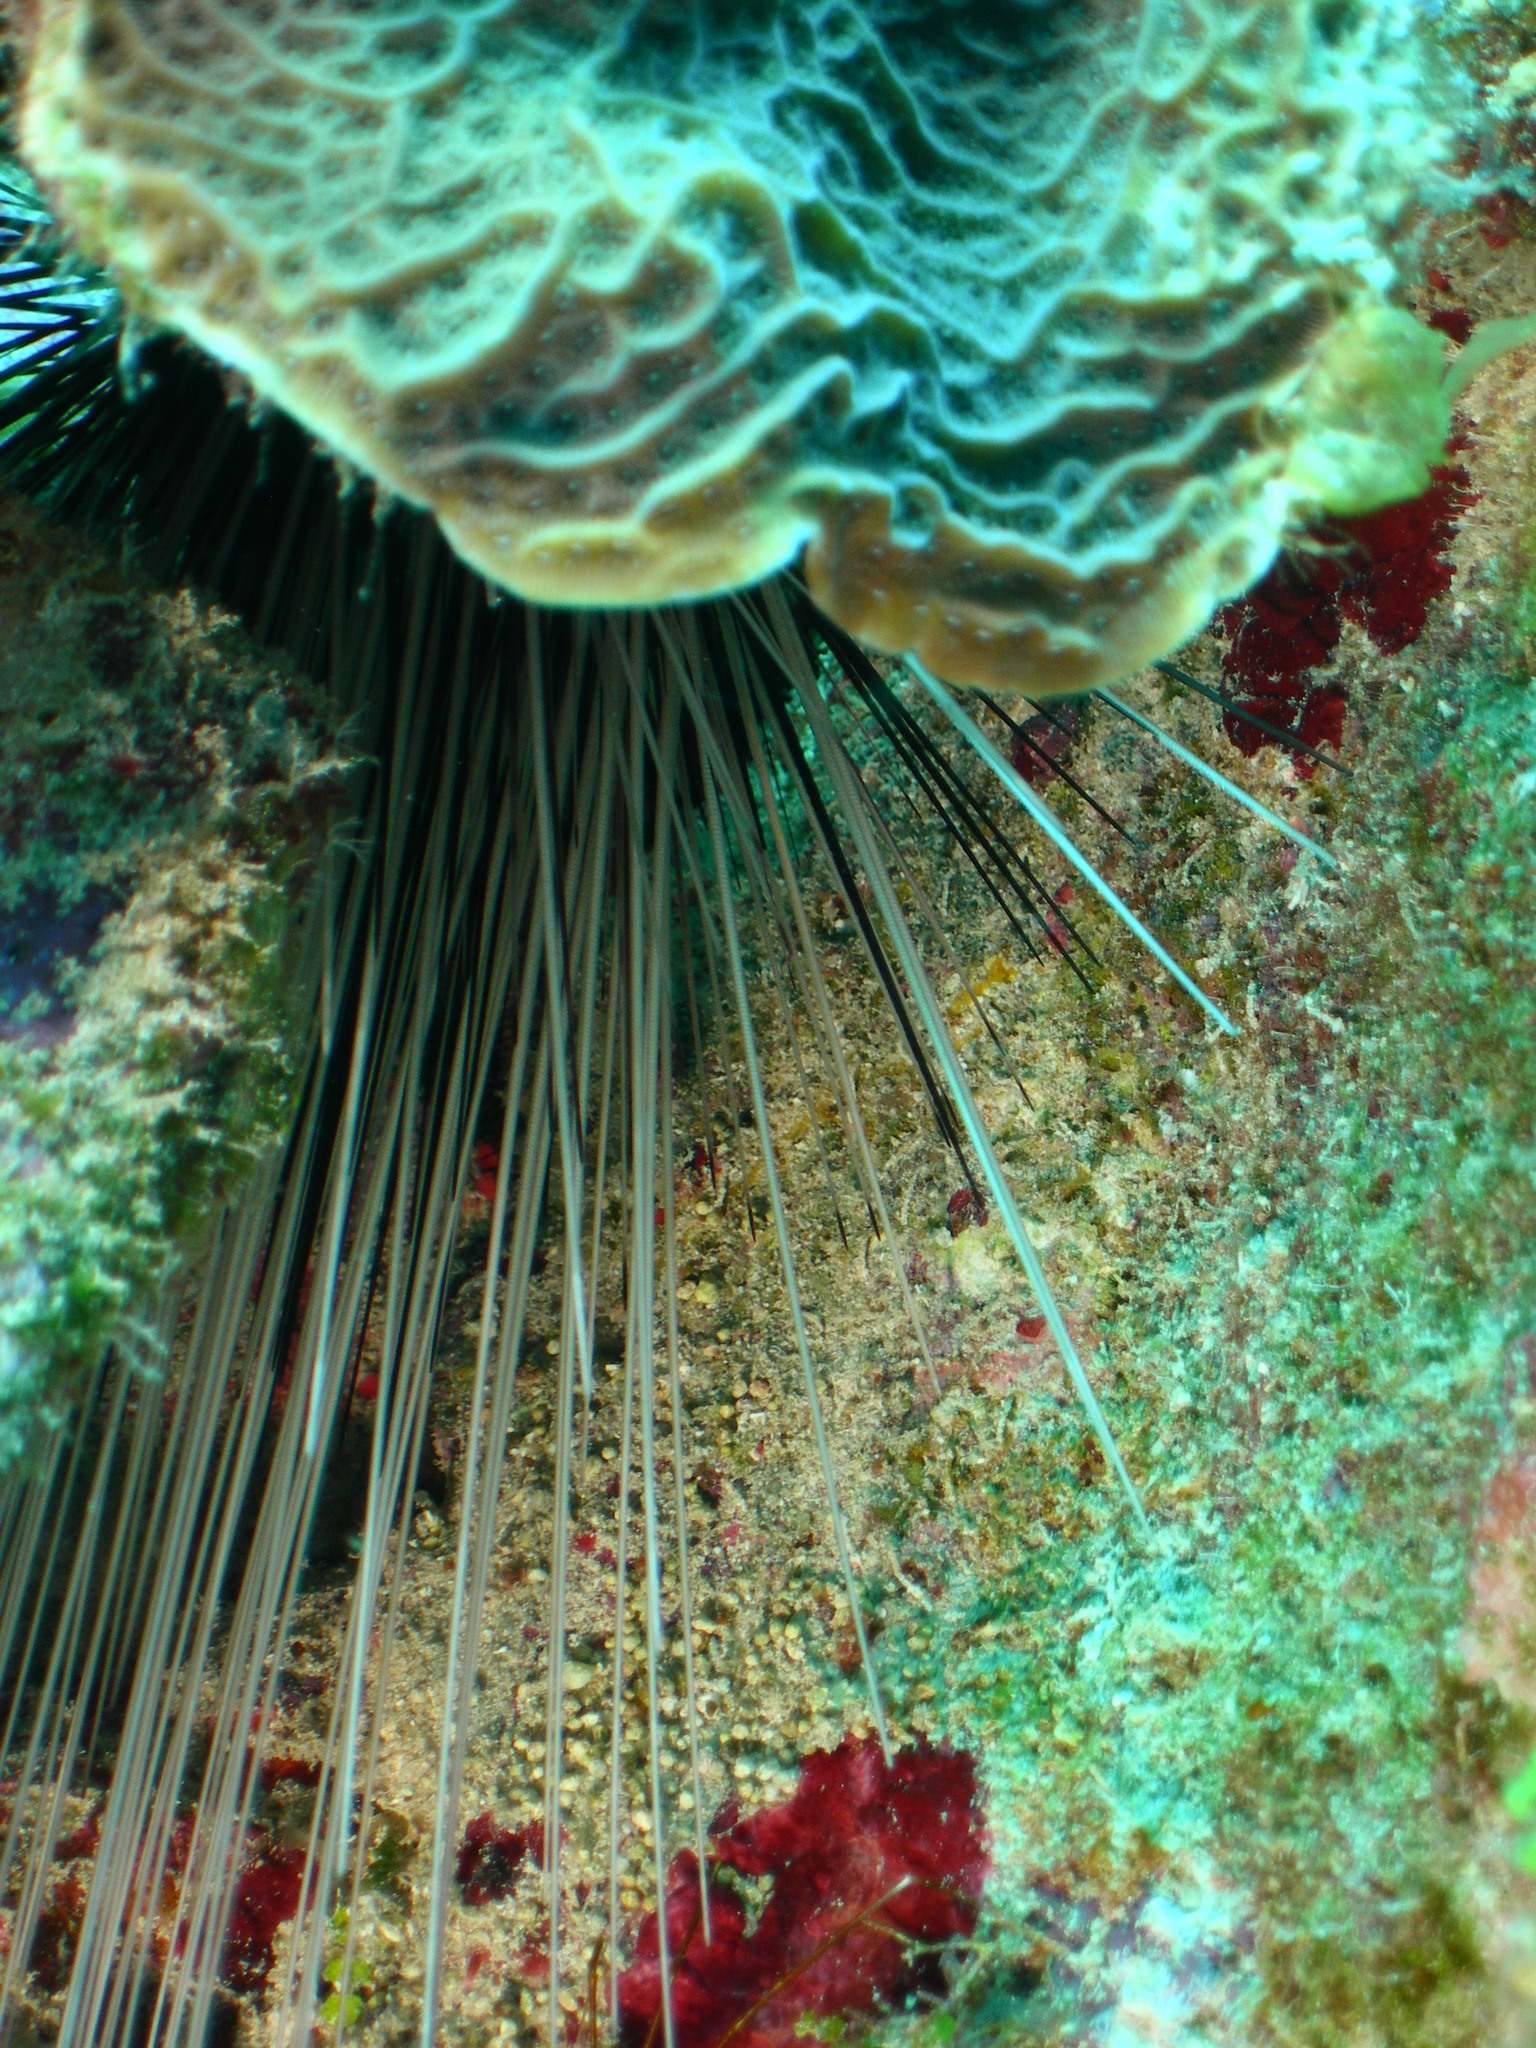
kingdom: Animalia
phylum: Echinodermata
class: Echinoidea
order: Diadematoida
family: Diadematidae
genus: Diadema
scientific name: Diadema antillarum
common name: Spiny urchin
